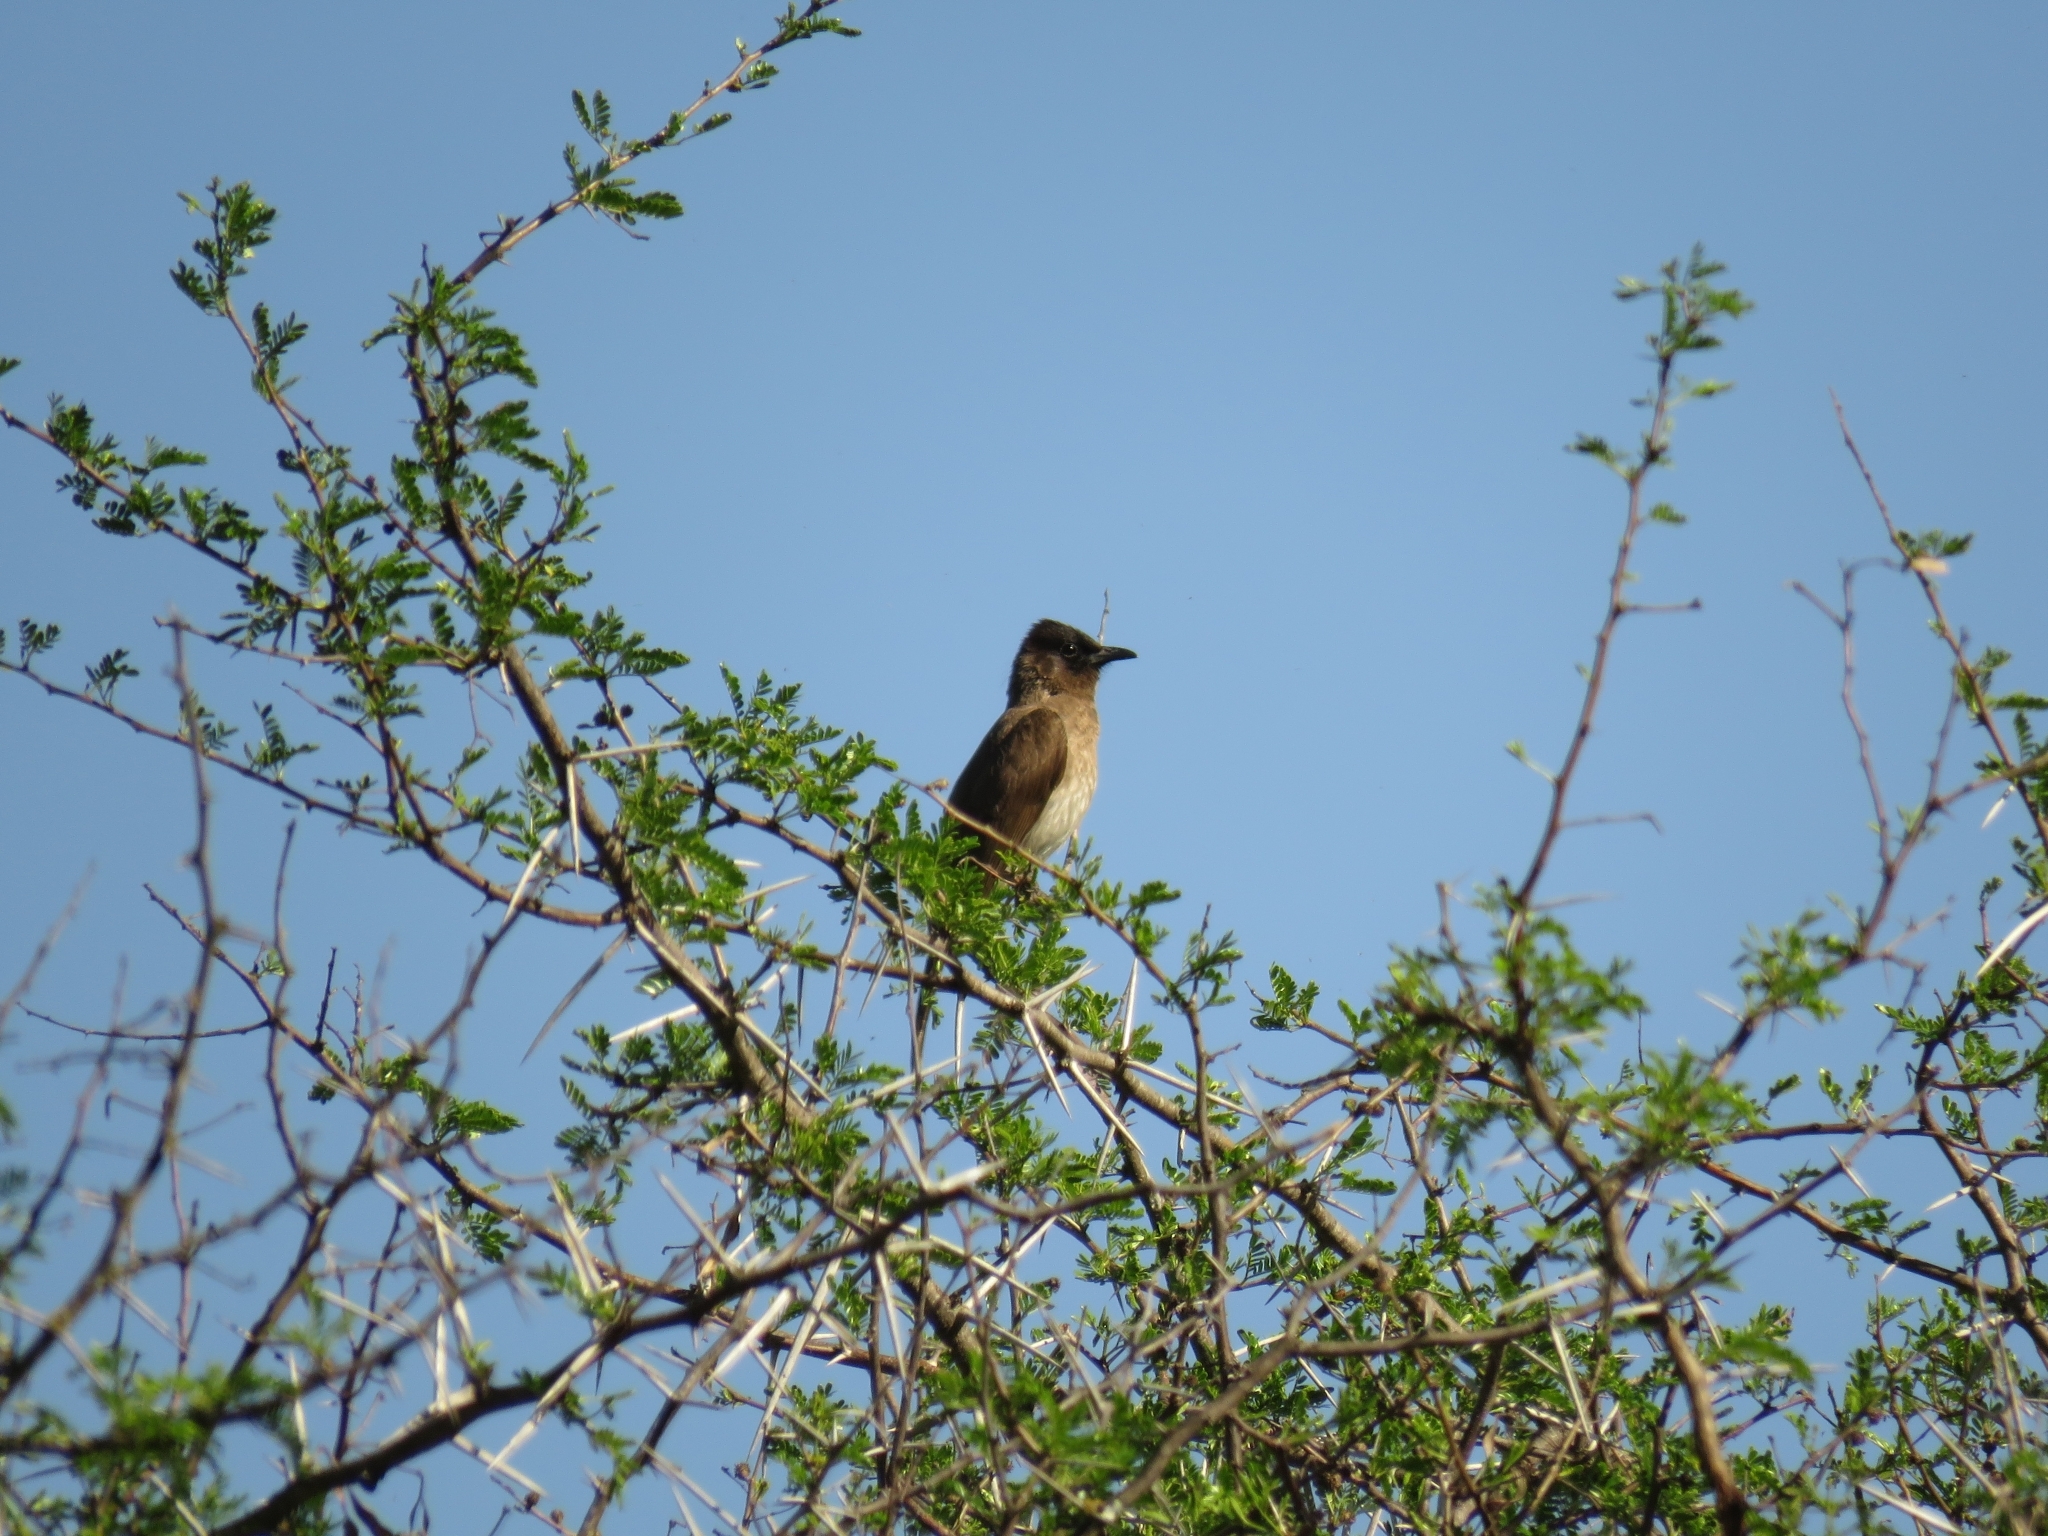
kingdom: Animalia
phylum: Chordata
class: Aves
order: Passeriformes
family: Pycnonotidae
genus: Pycnonotus
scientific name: Pycnonotus barbatus
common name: Common bulbul
